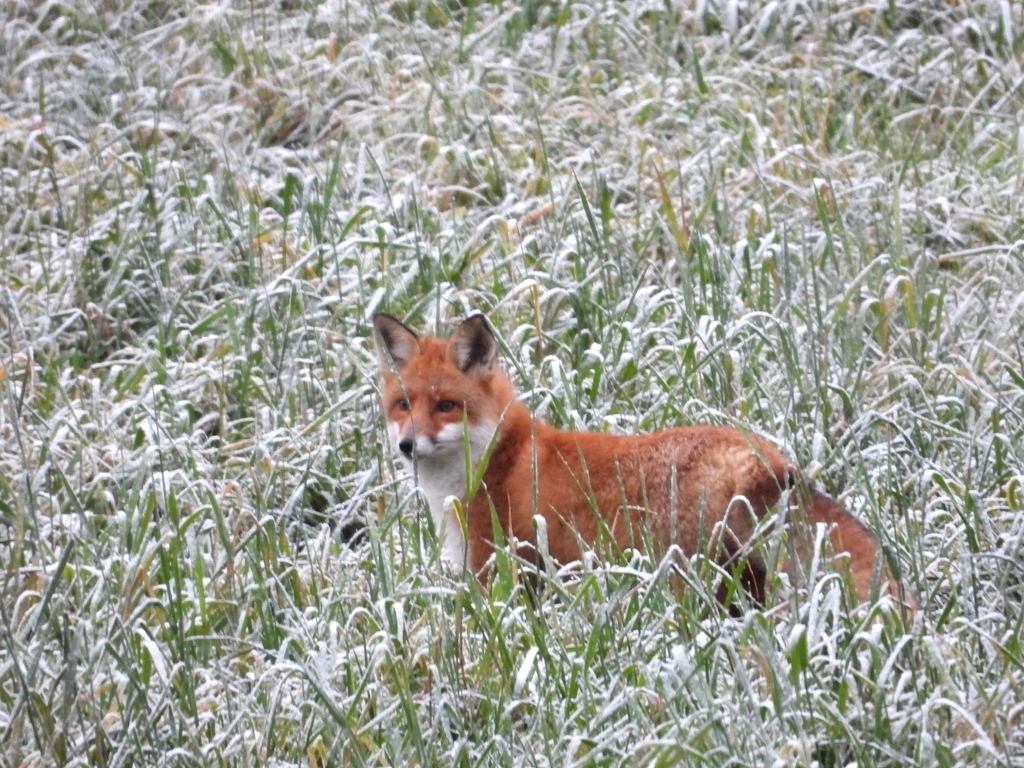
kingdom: Animalia
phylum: Chordata
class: Mammalia
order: Carnivora
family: Canidae
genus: Vulpes
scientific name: Vulpes vulpes
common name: Red fox
